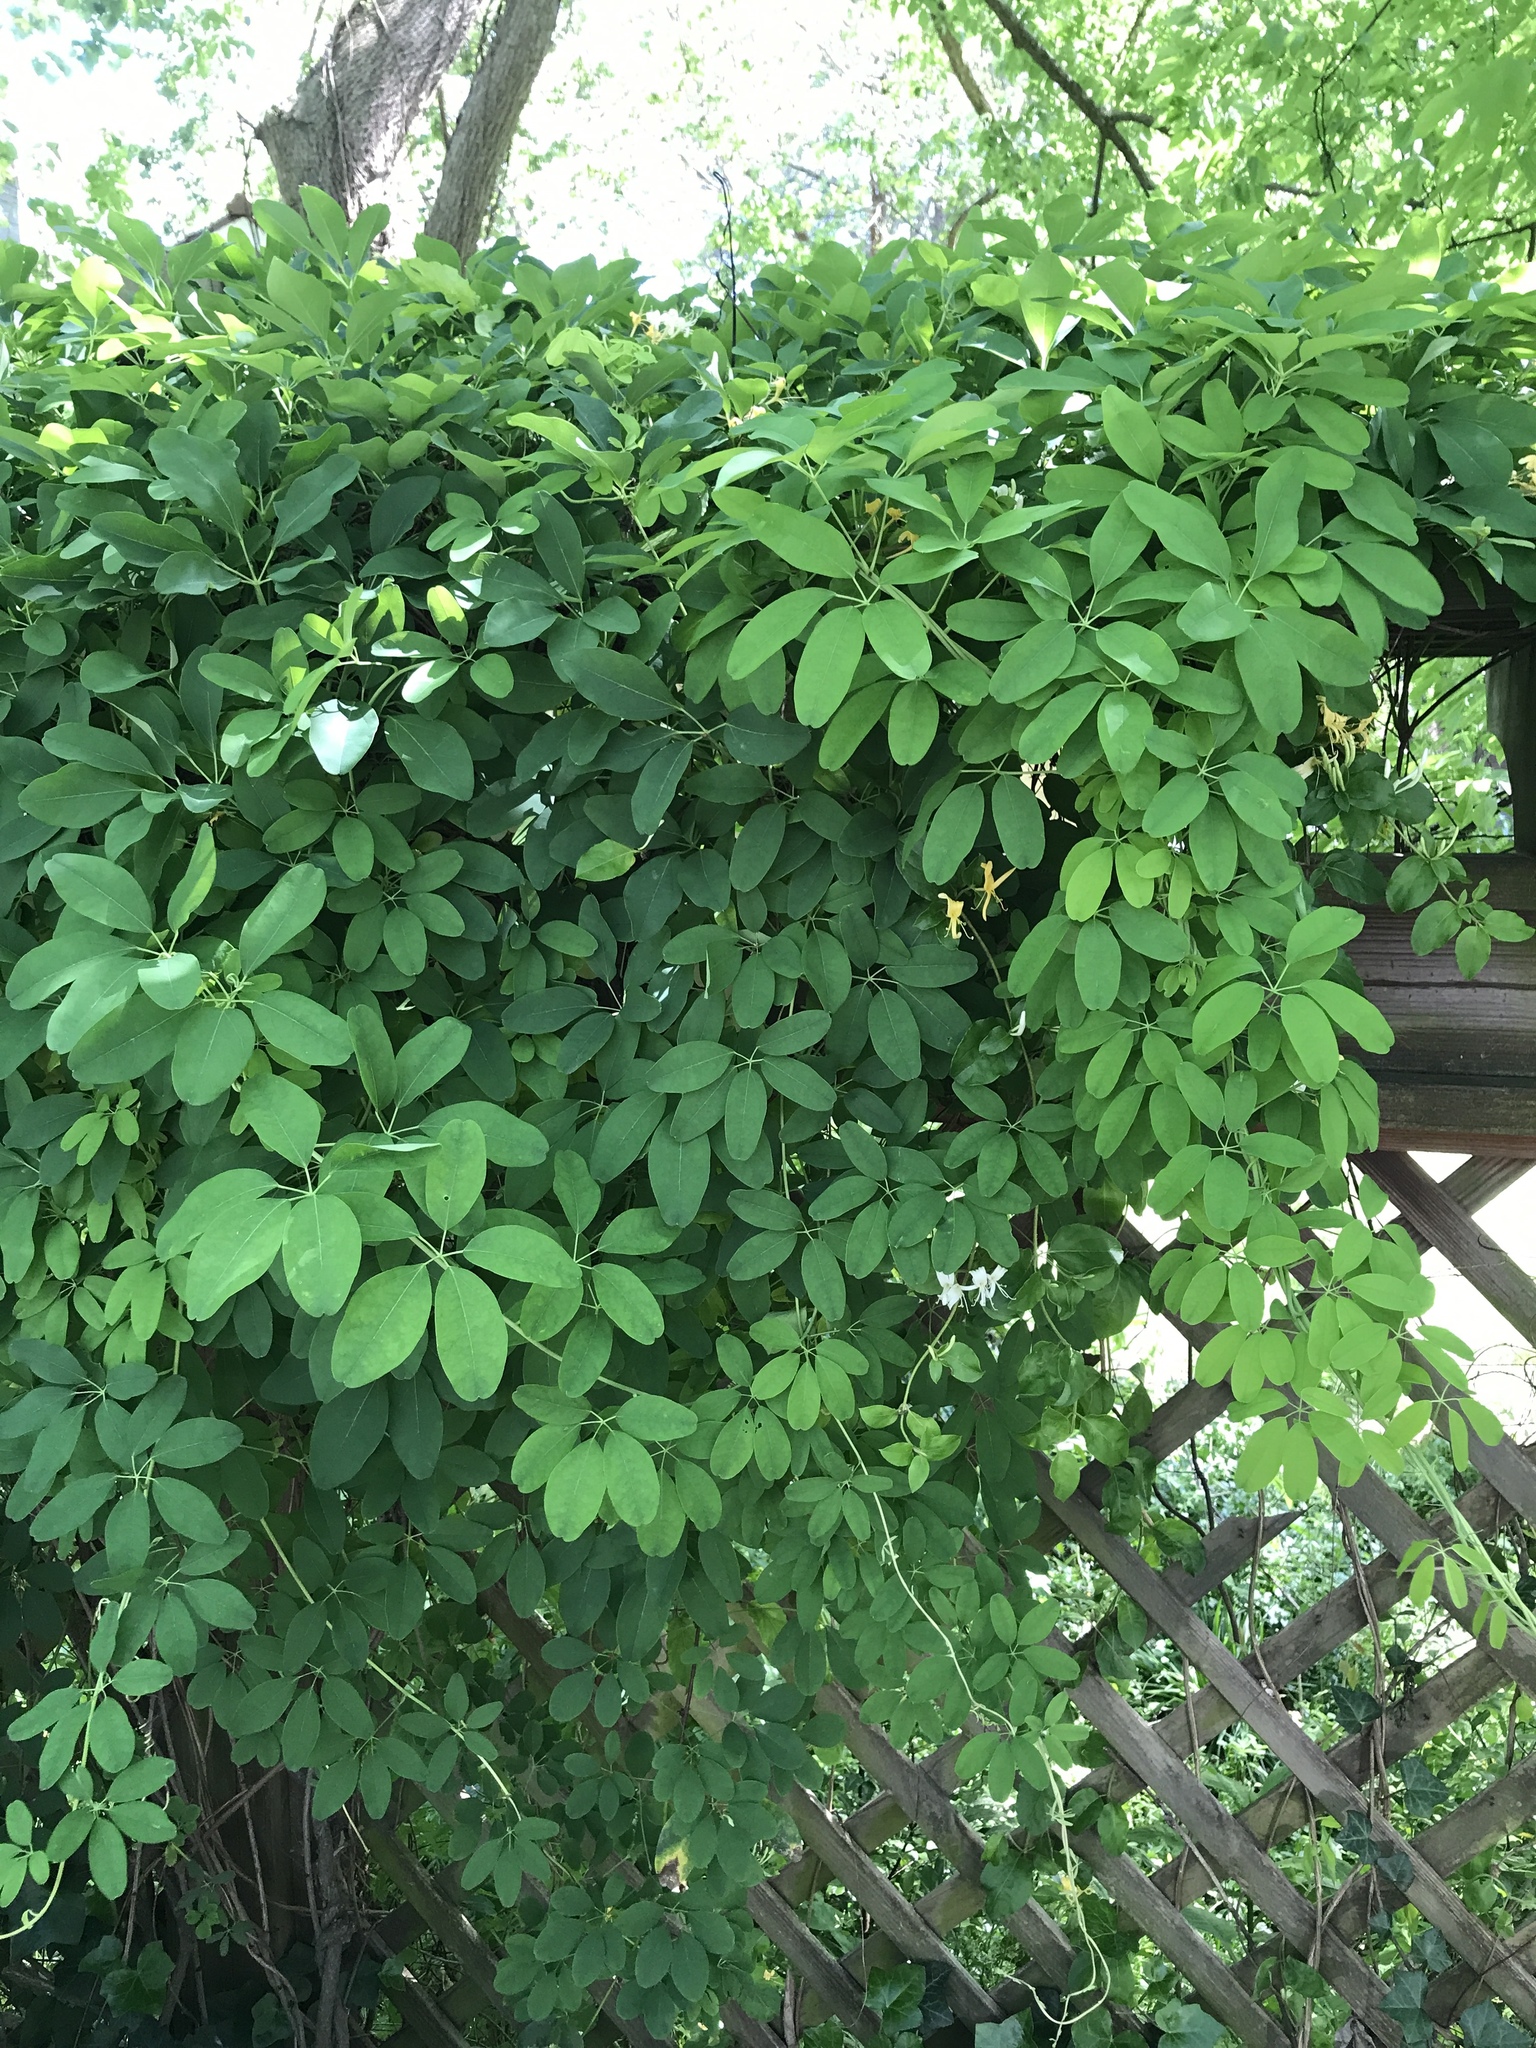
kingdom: Plantae
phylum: Tracheophyta
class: Magnoliopsida
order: Ranunculales
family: Lardizabalaceae
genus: Akebia
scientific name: Akebia quinata
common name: Five-leaf akebia
